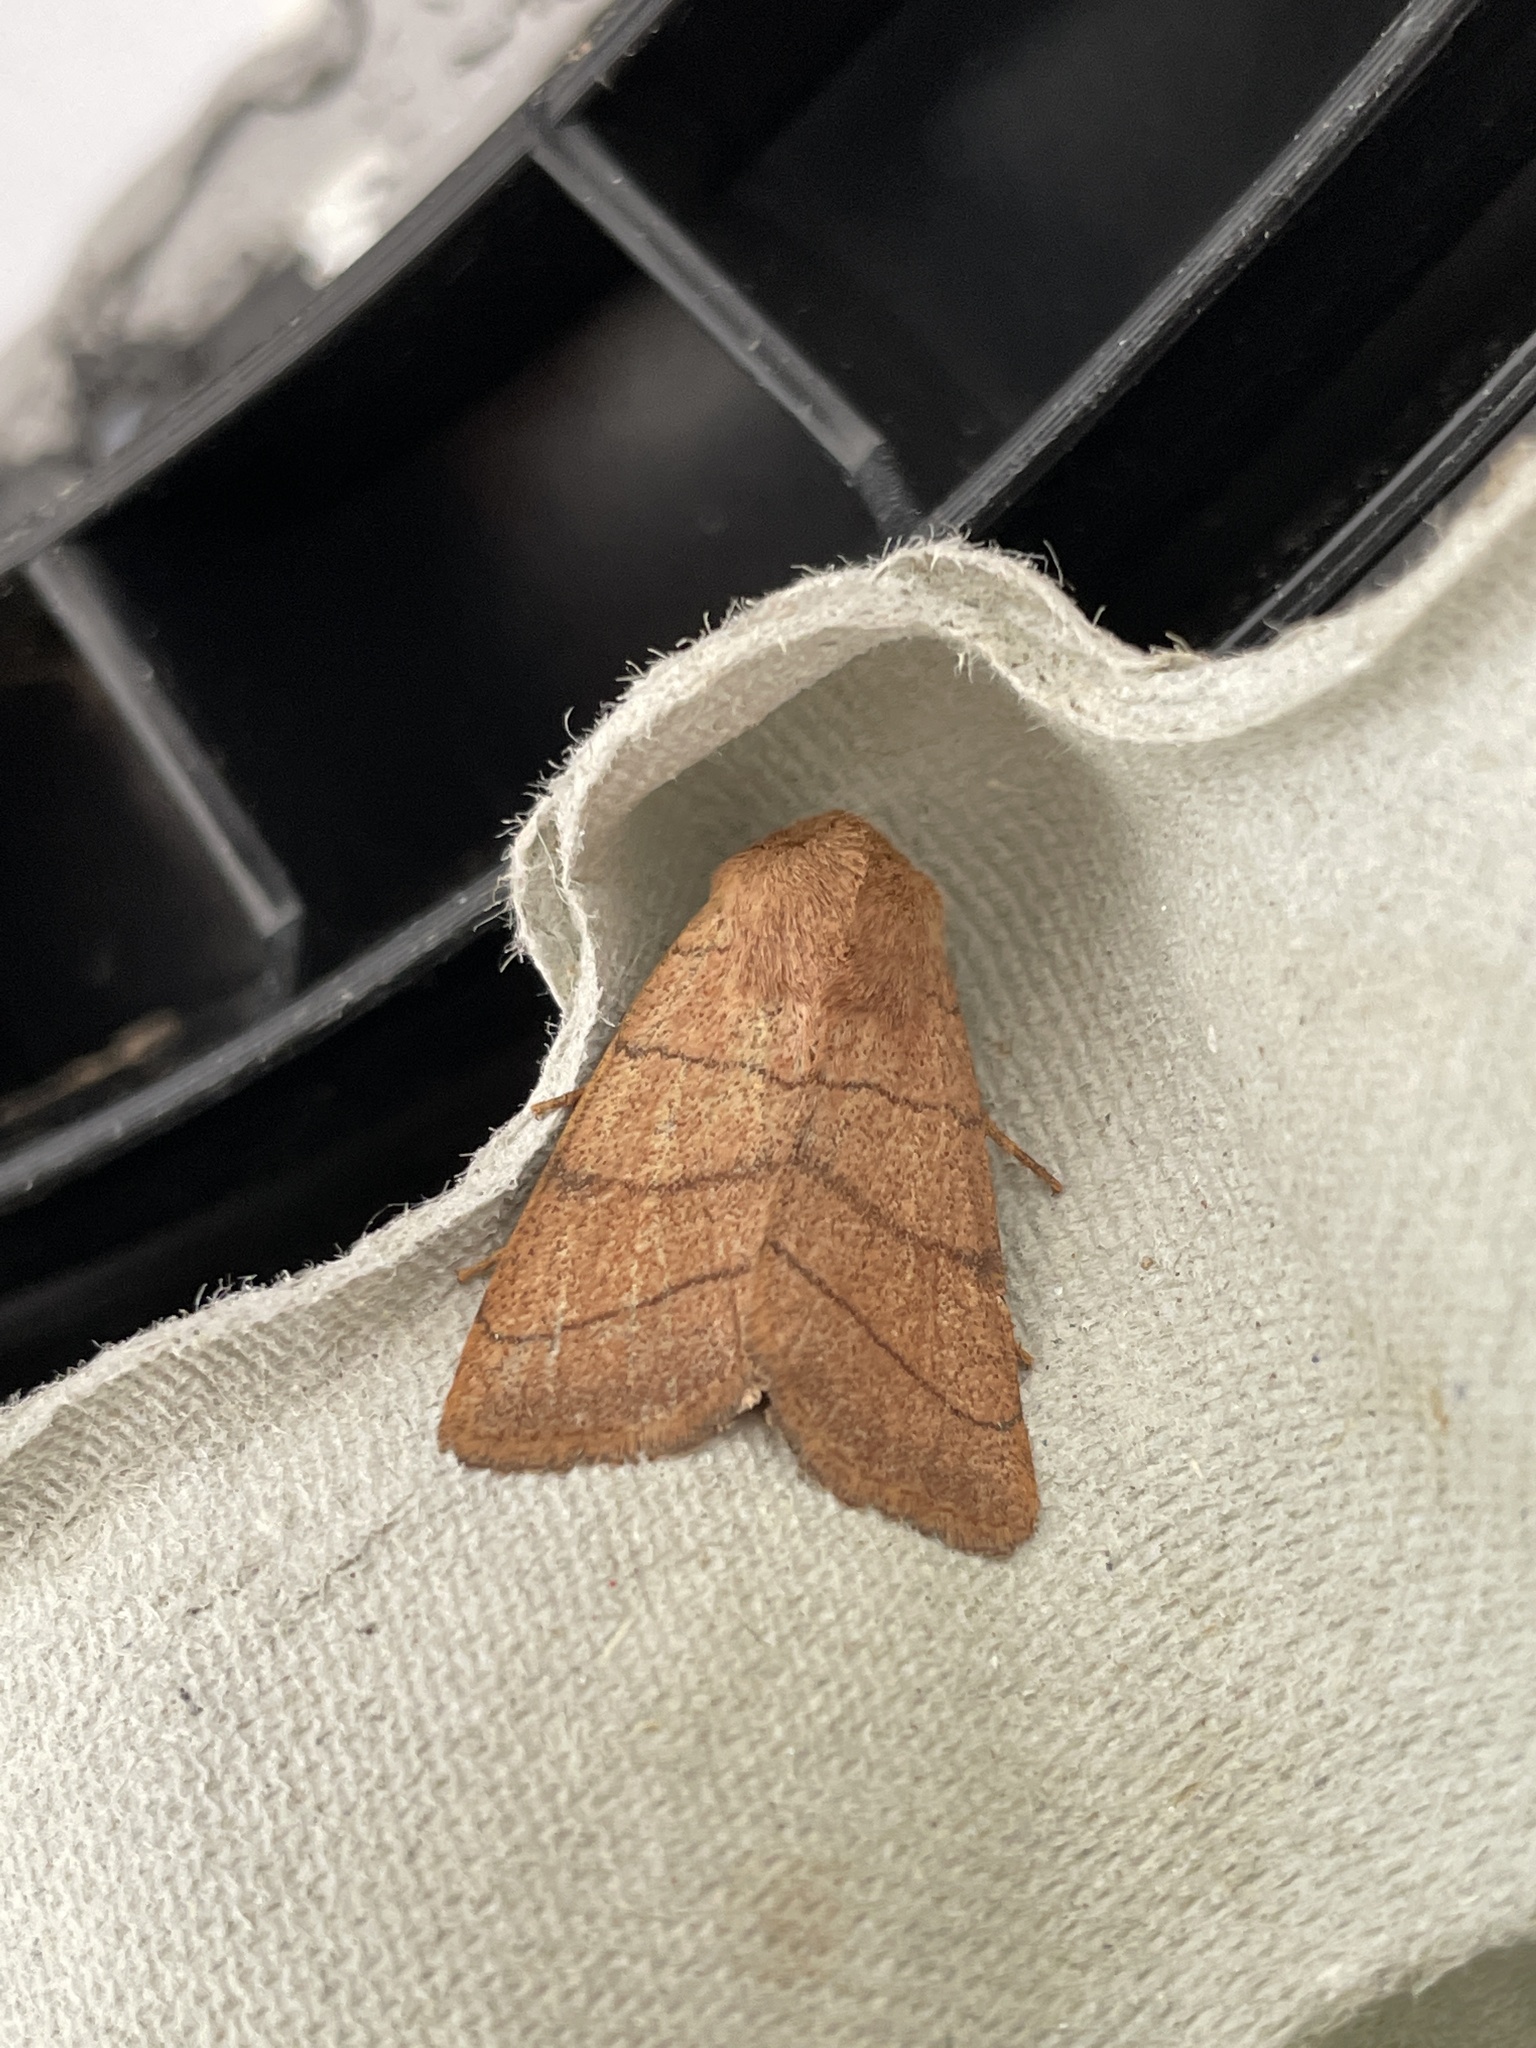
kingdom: Animalia
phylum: Arthropoda
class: Insecta
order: Lepidoptera
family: Noctuidae
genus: Charanyca
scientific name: Charanyca trigrammica
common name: Treble lines
